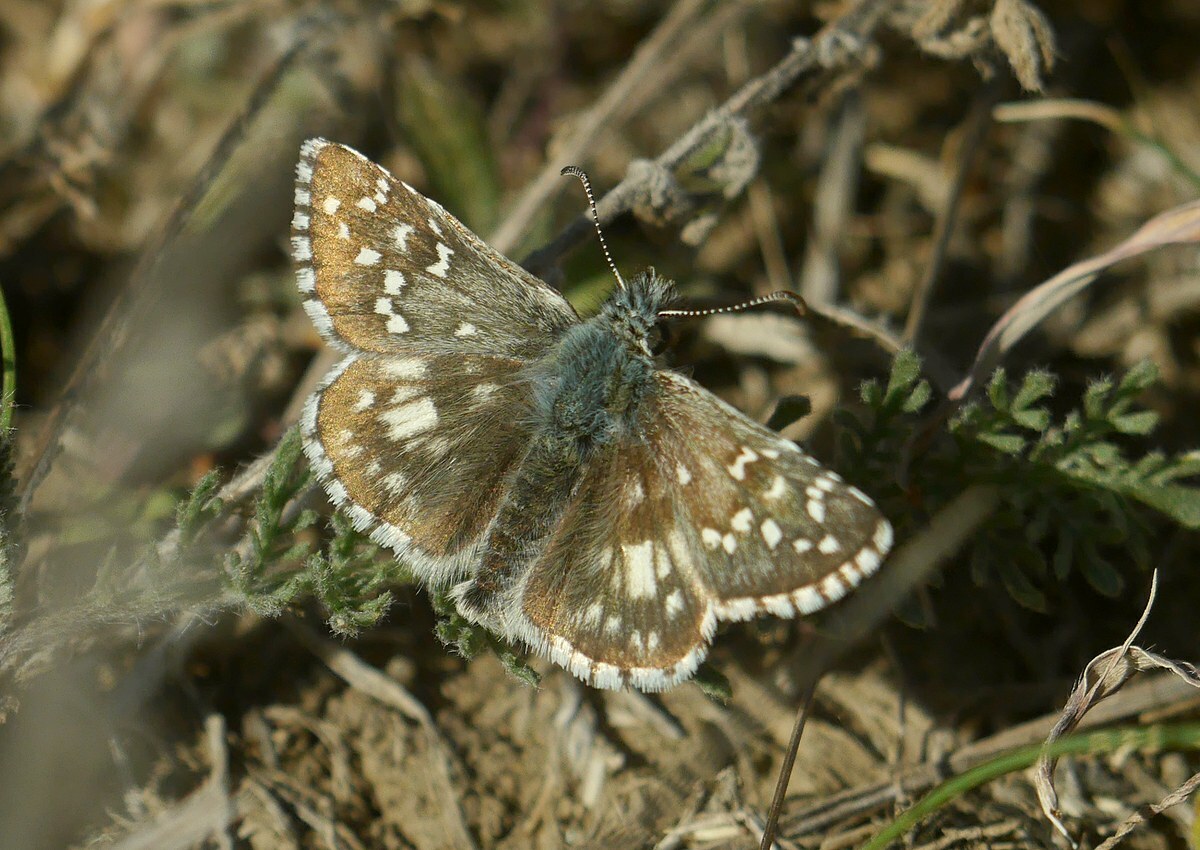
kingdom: Animalia
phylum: Arthropoda
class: Insecta
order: Lepidoptera
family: Hesperiidae
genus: Pyrgus
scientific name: Pyrgus armoricanus
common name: Oberthür's grizzled skipper
